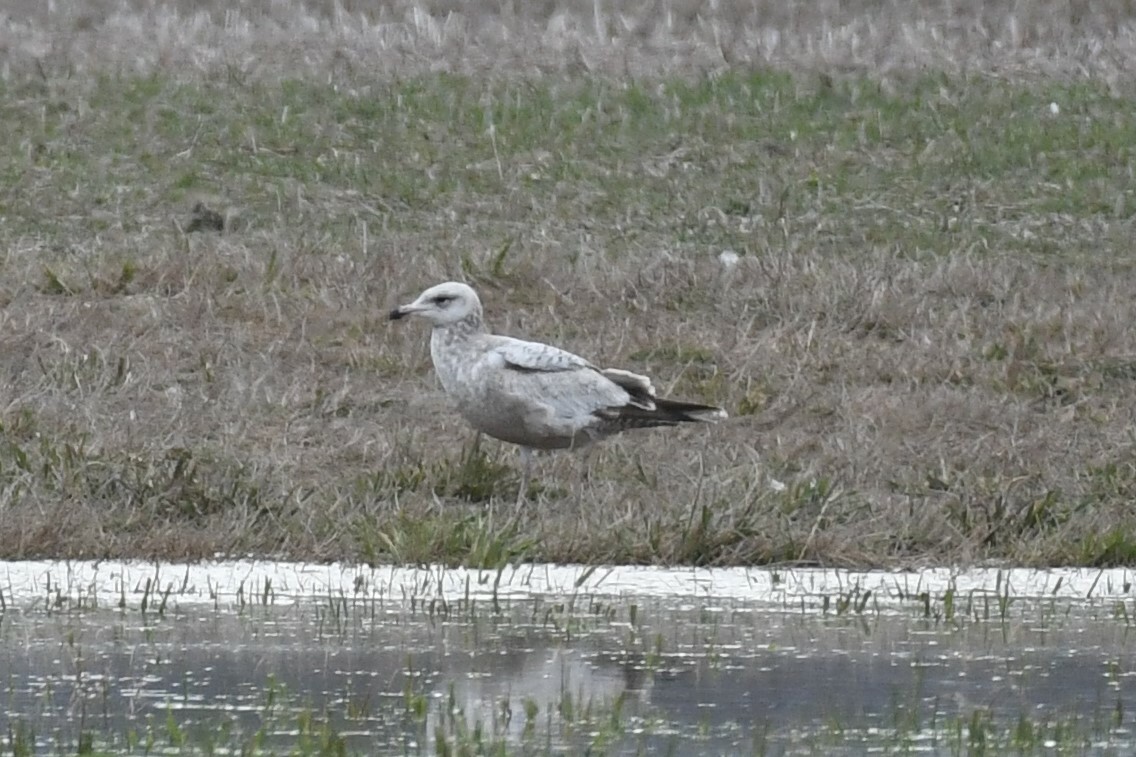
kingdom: Animalia
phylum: Chordata
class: Aves
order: Charadriiformes
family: Laridae
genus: Larus
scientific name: Larus argentatus
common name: Herring gull
